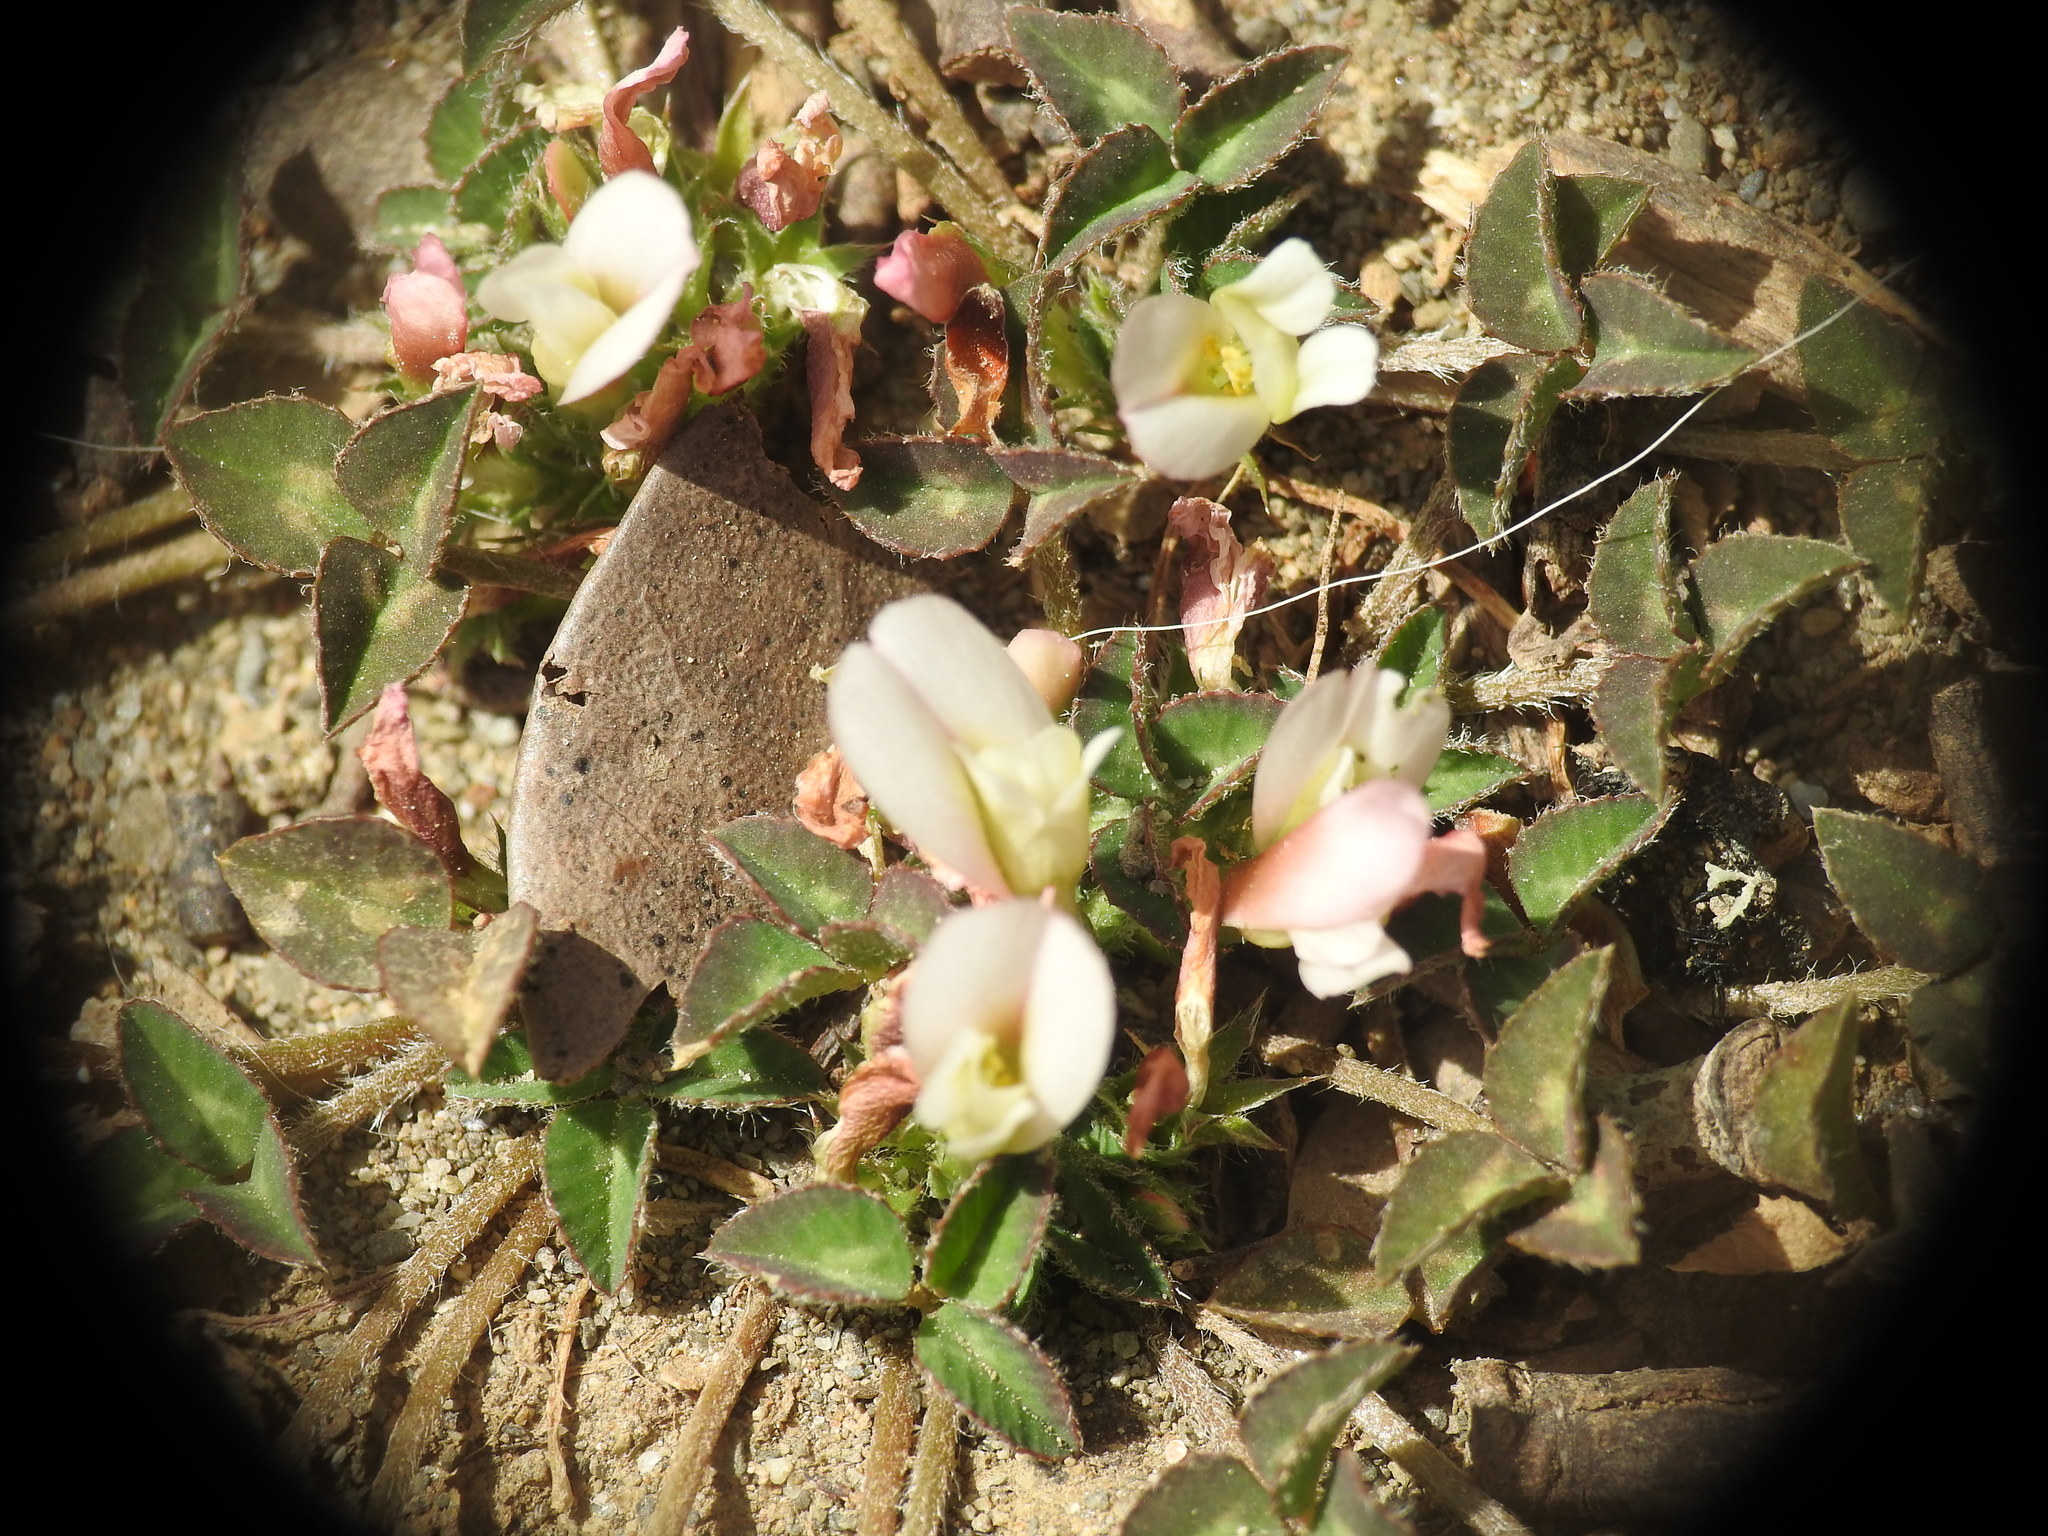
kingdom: Plantae
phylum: Tracheophyta
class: Magnoliopsida
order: Fabales
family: Fabaceae
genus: Trifolium
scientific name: Trifolium uniflorum
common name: One-flower clover
